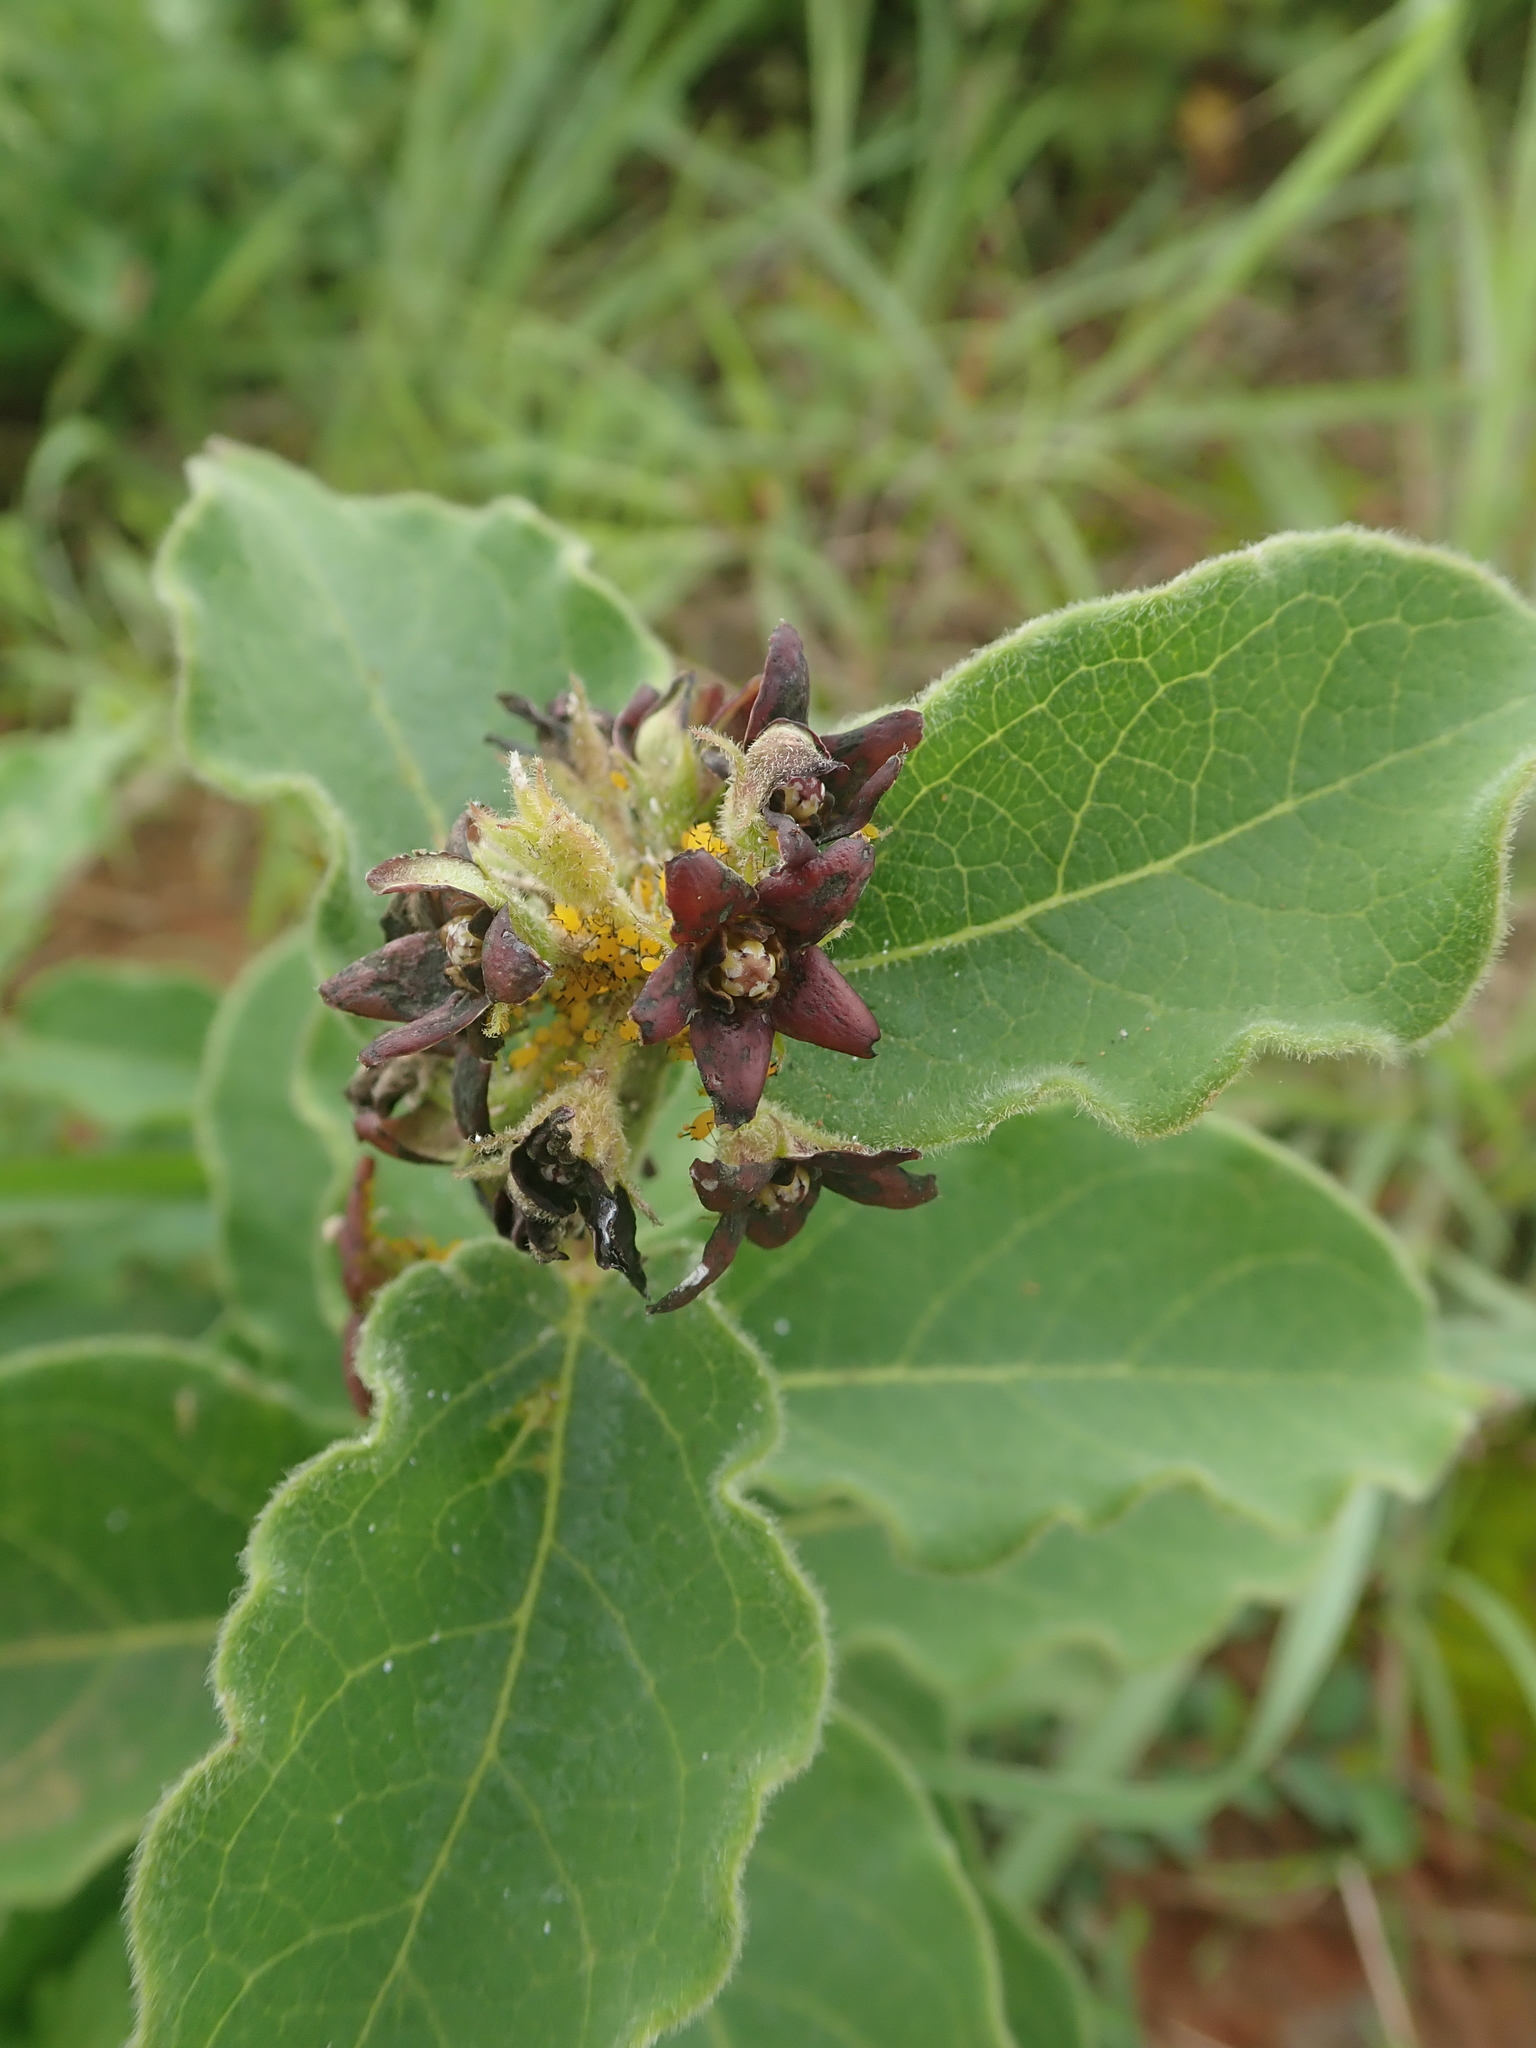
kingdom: Plantae
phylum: Tracheophyta
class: Magnoliopsida
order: Gentianales
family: Apocynaceae
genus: Vincetoxicum
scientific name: Vincetoxicum atratum
